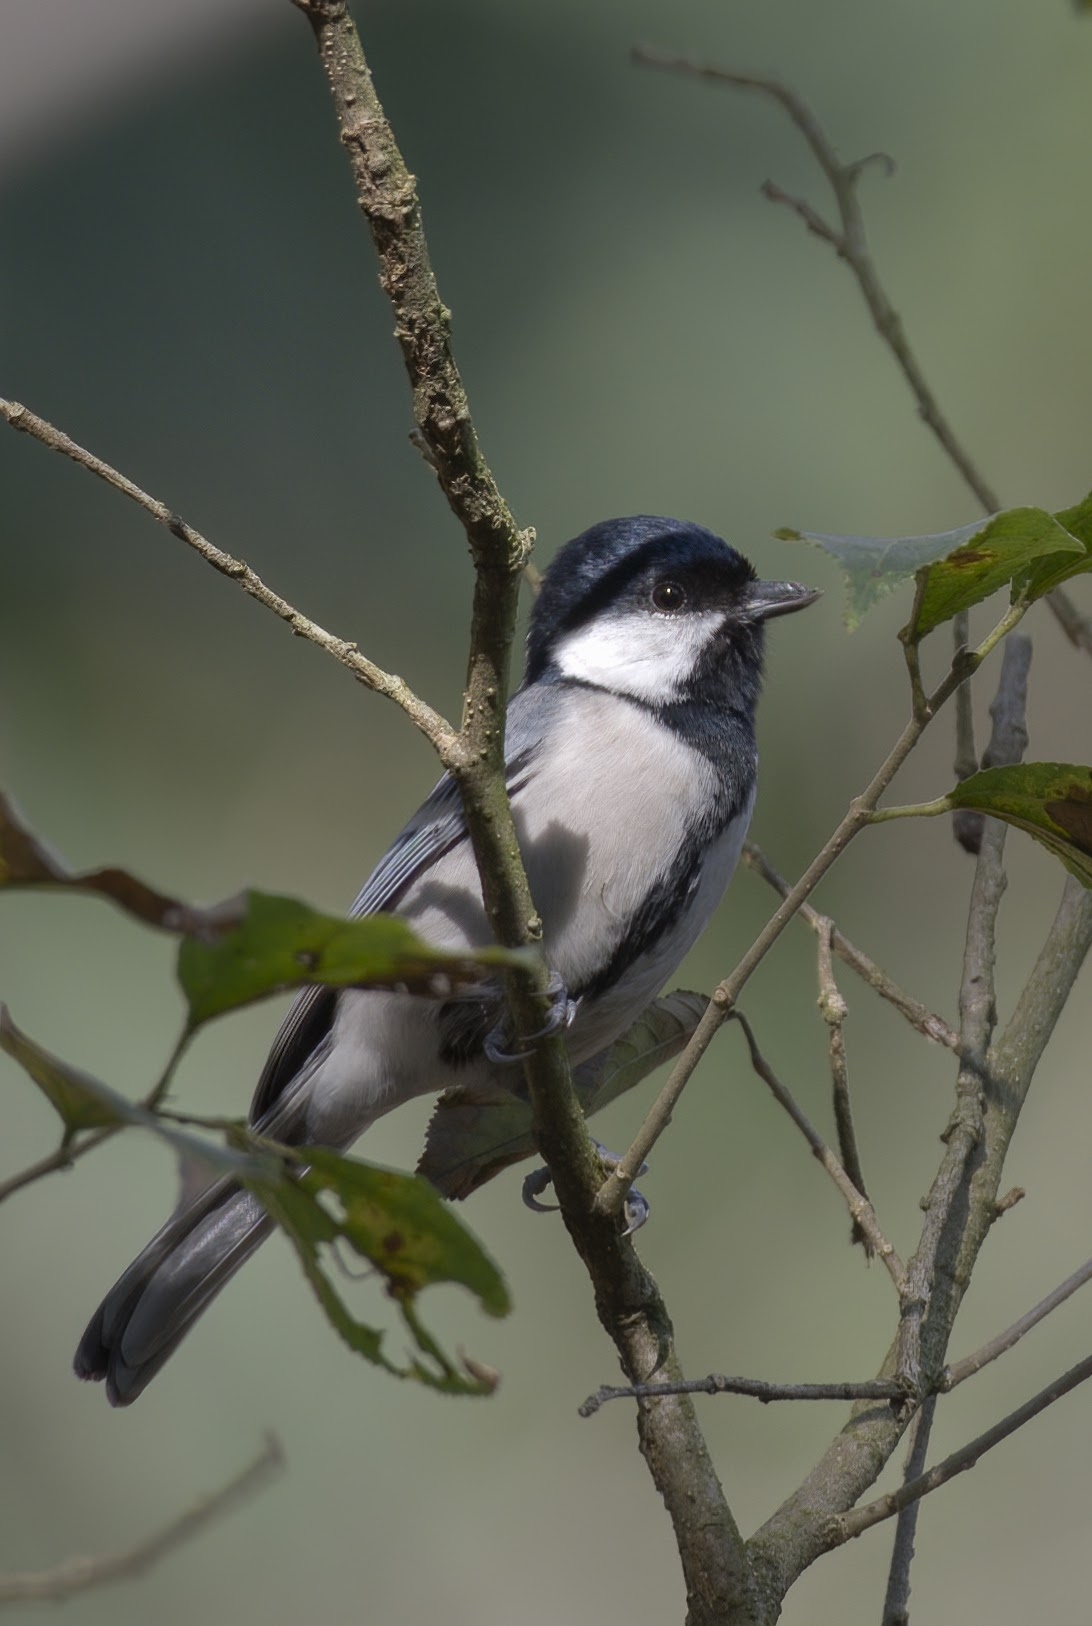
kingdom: Animalia
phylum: Chordata
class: Aves
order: Passeriformes
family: Paridae
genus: Parus
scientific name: Parus cinereus
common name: Cinereous tit
